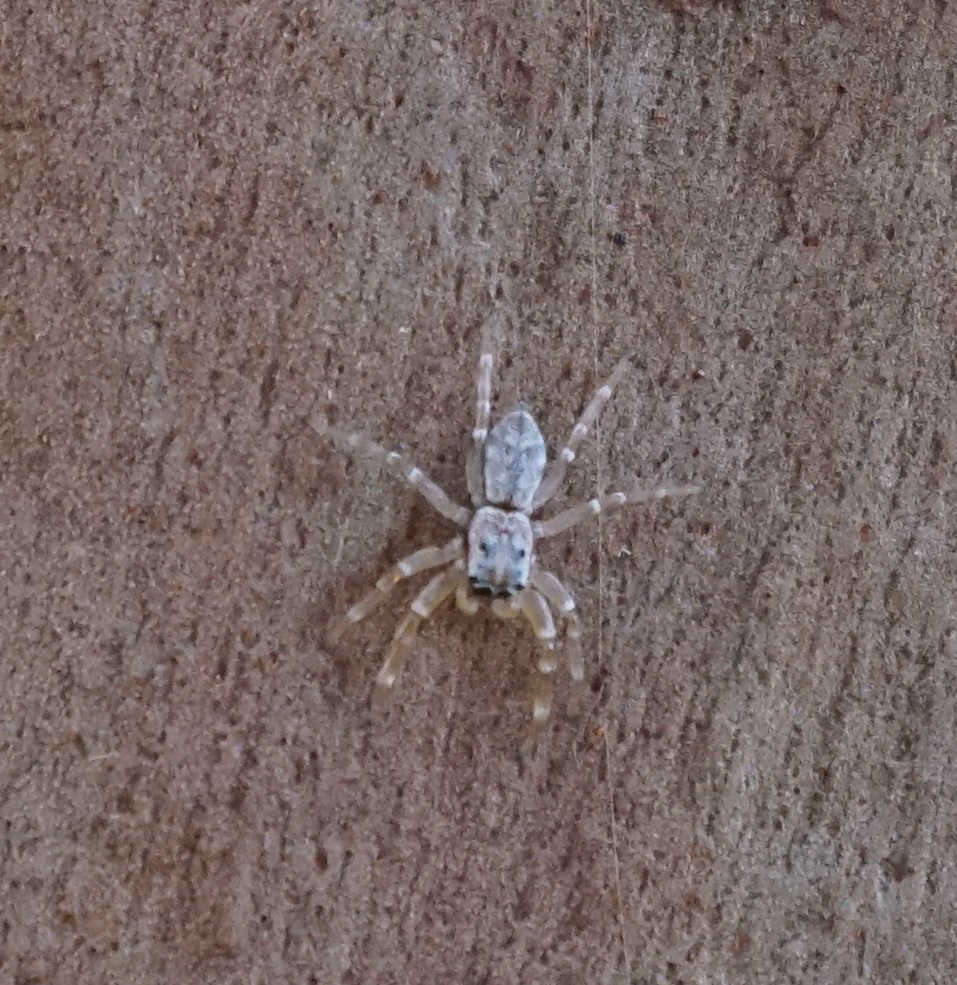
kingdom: Animalia
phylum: Arthropoda
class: Arachnida
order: Araneae
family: Salticidae
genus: Arasia
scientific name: Arasia mollicoma
